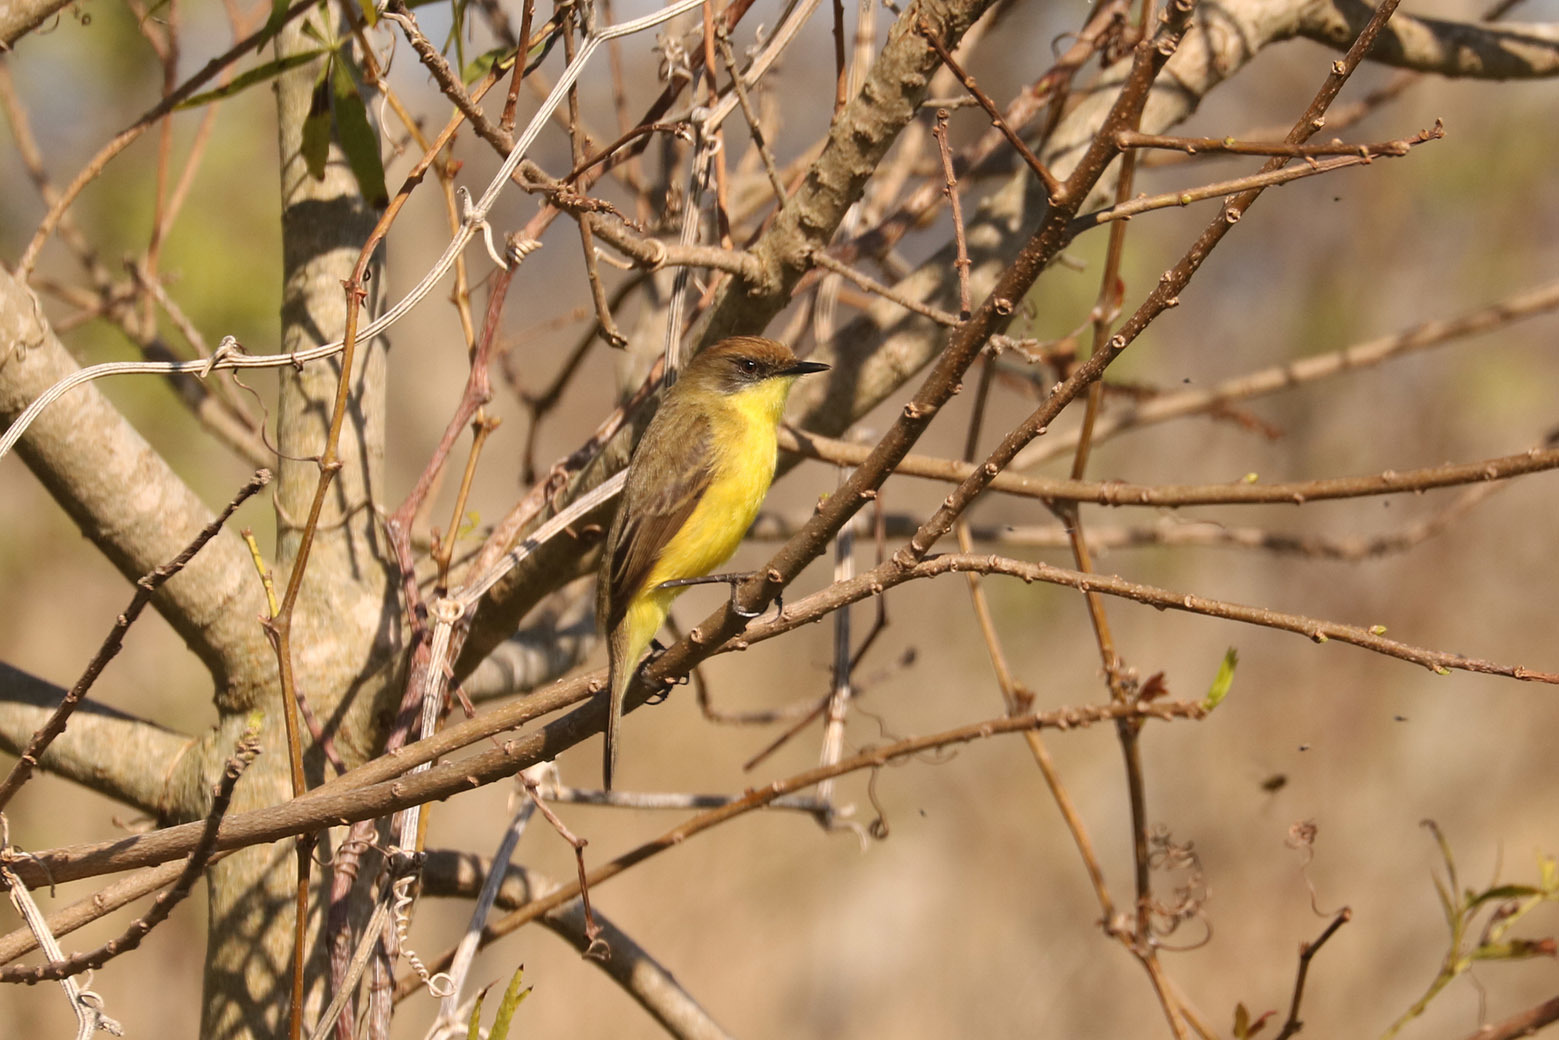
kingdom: Animalia
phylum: Chordata
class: Aves
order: Passeriformes
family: Tyrannidae
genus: Pseudocolopteryx
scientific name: Pseudocolopteryx flaviventris
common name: Warbling doradito
